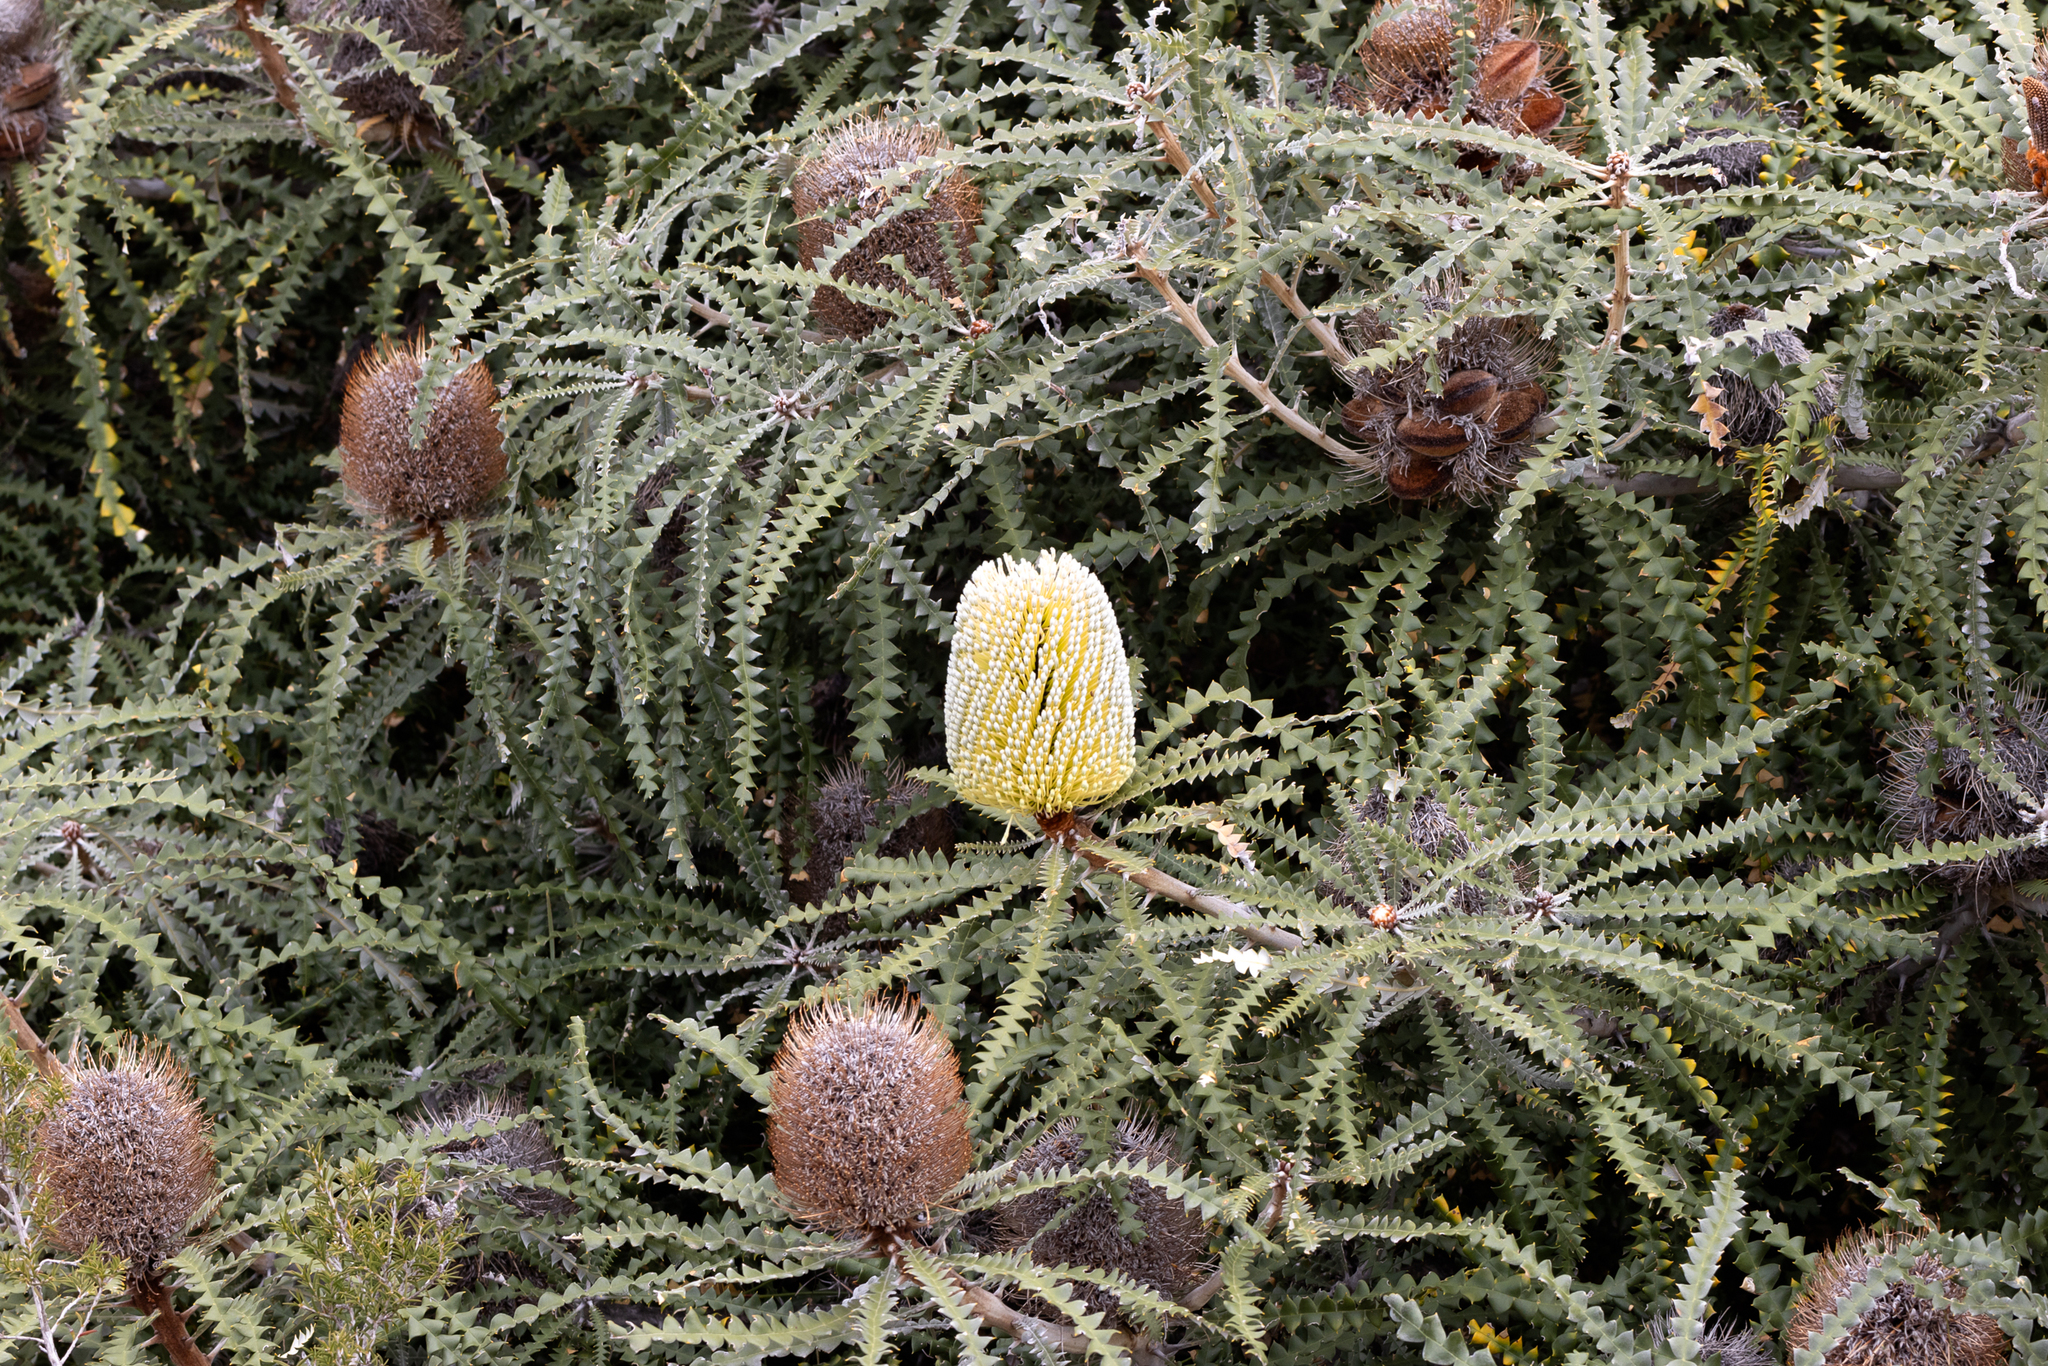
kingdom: Plantae
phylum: Tracheophyta
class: Magnoliopsida
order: Proteales
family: Proteaceae
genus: Banksia
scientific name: Banksia speciosa
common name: Showy banksia
